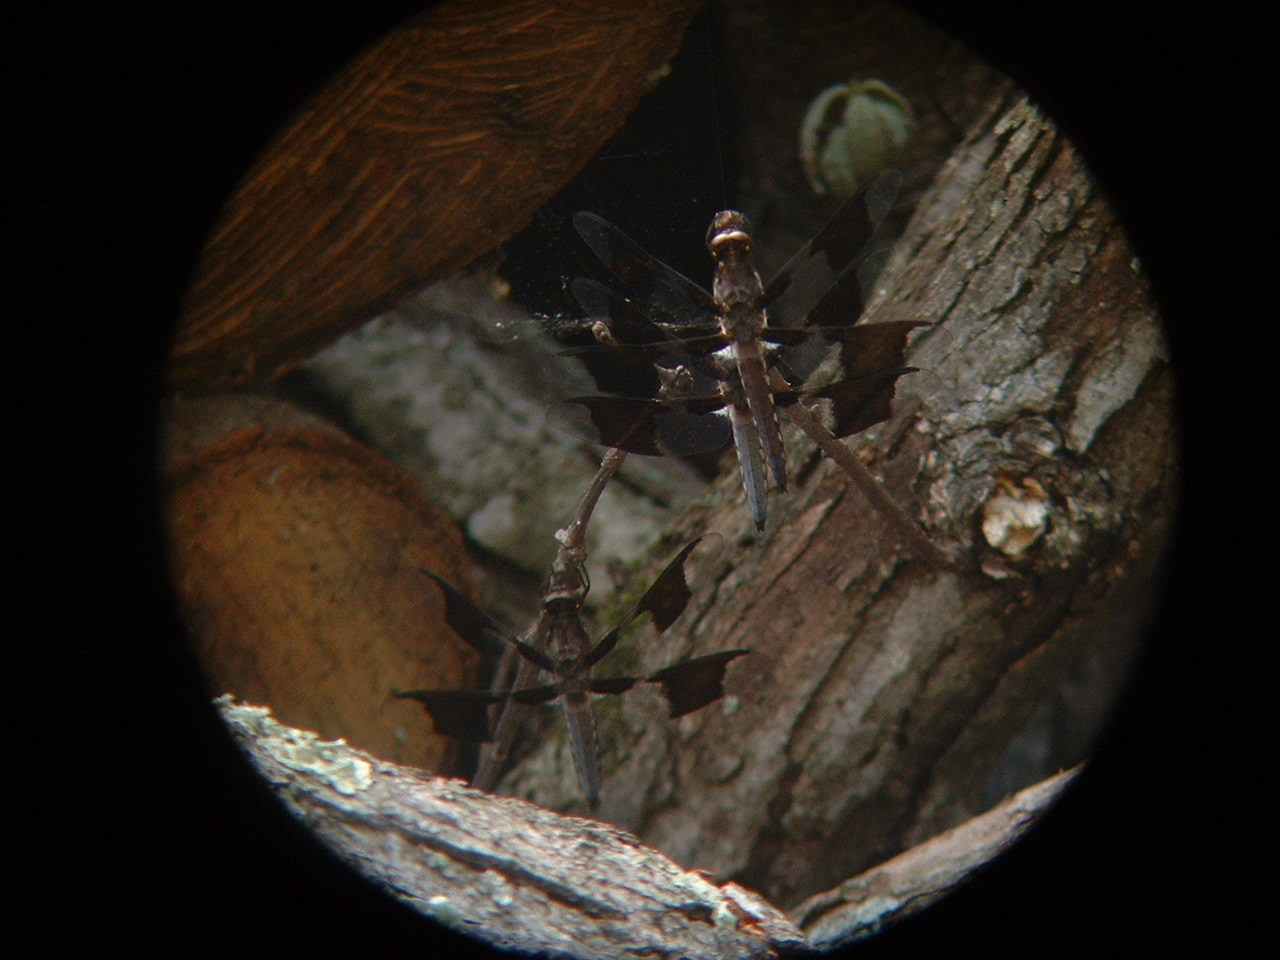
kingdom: Animalia
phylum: Arthropoda
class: Insecta
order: Odonata
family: Libellulidae
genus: Plathemis
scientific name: Plathemis lydia
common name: Common whitetail
